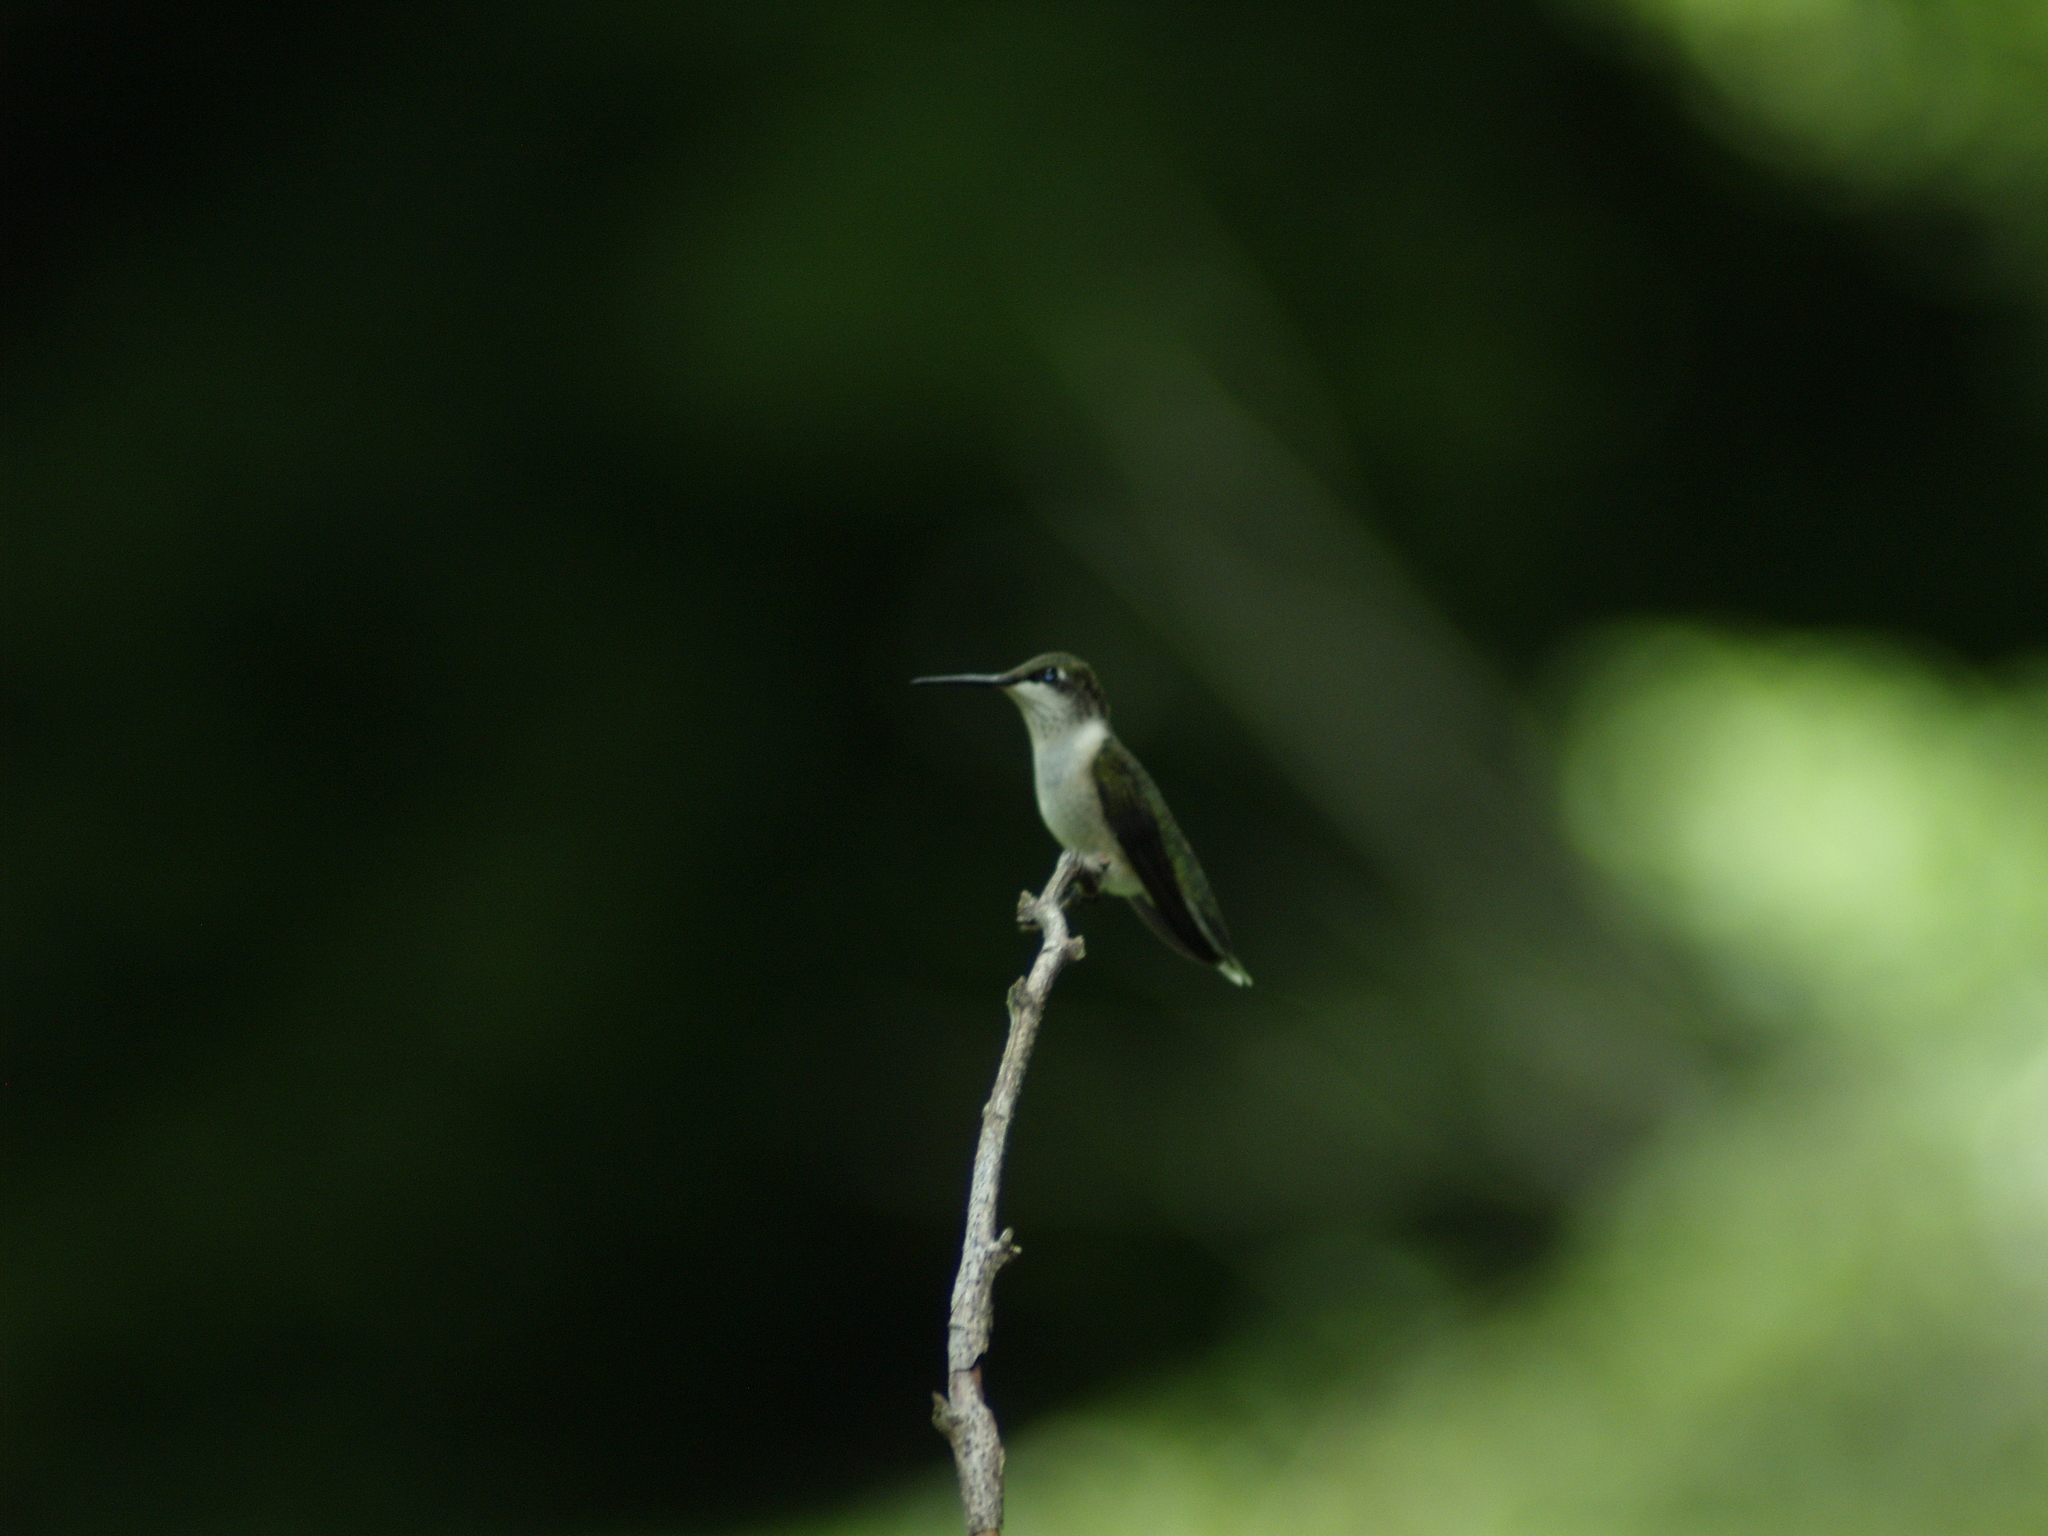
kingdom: Animalia
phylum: Chordata
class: Aves
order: Apodiformes
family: Trochilidae
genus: Archilochus
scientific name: Archilochus colubris
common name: Ruby-throated hummingbird
